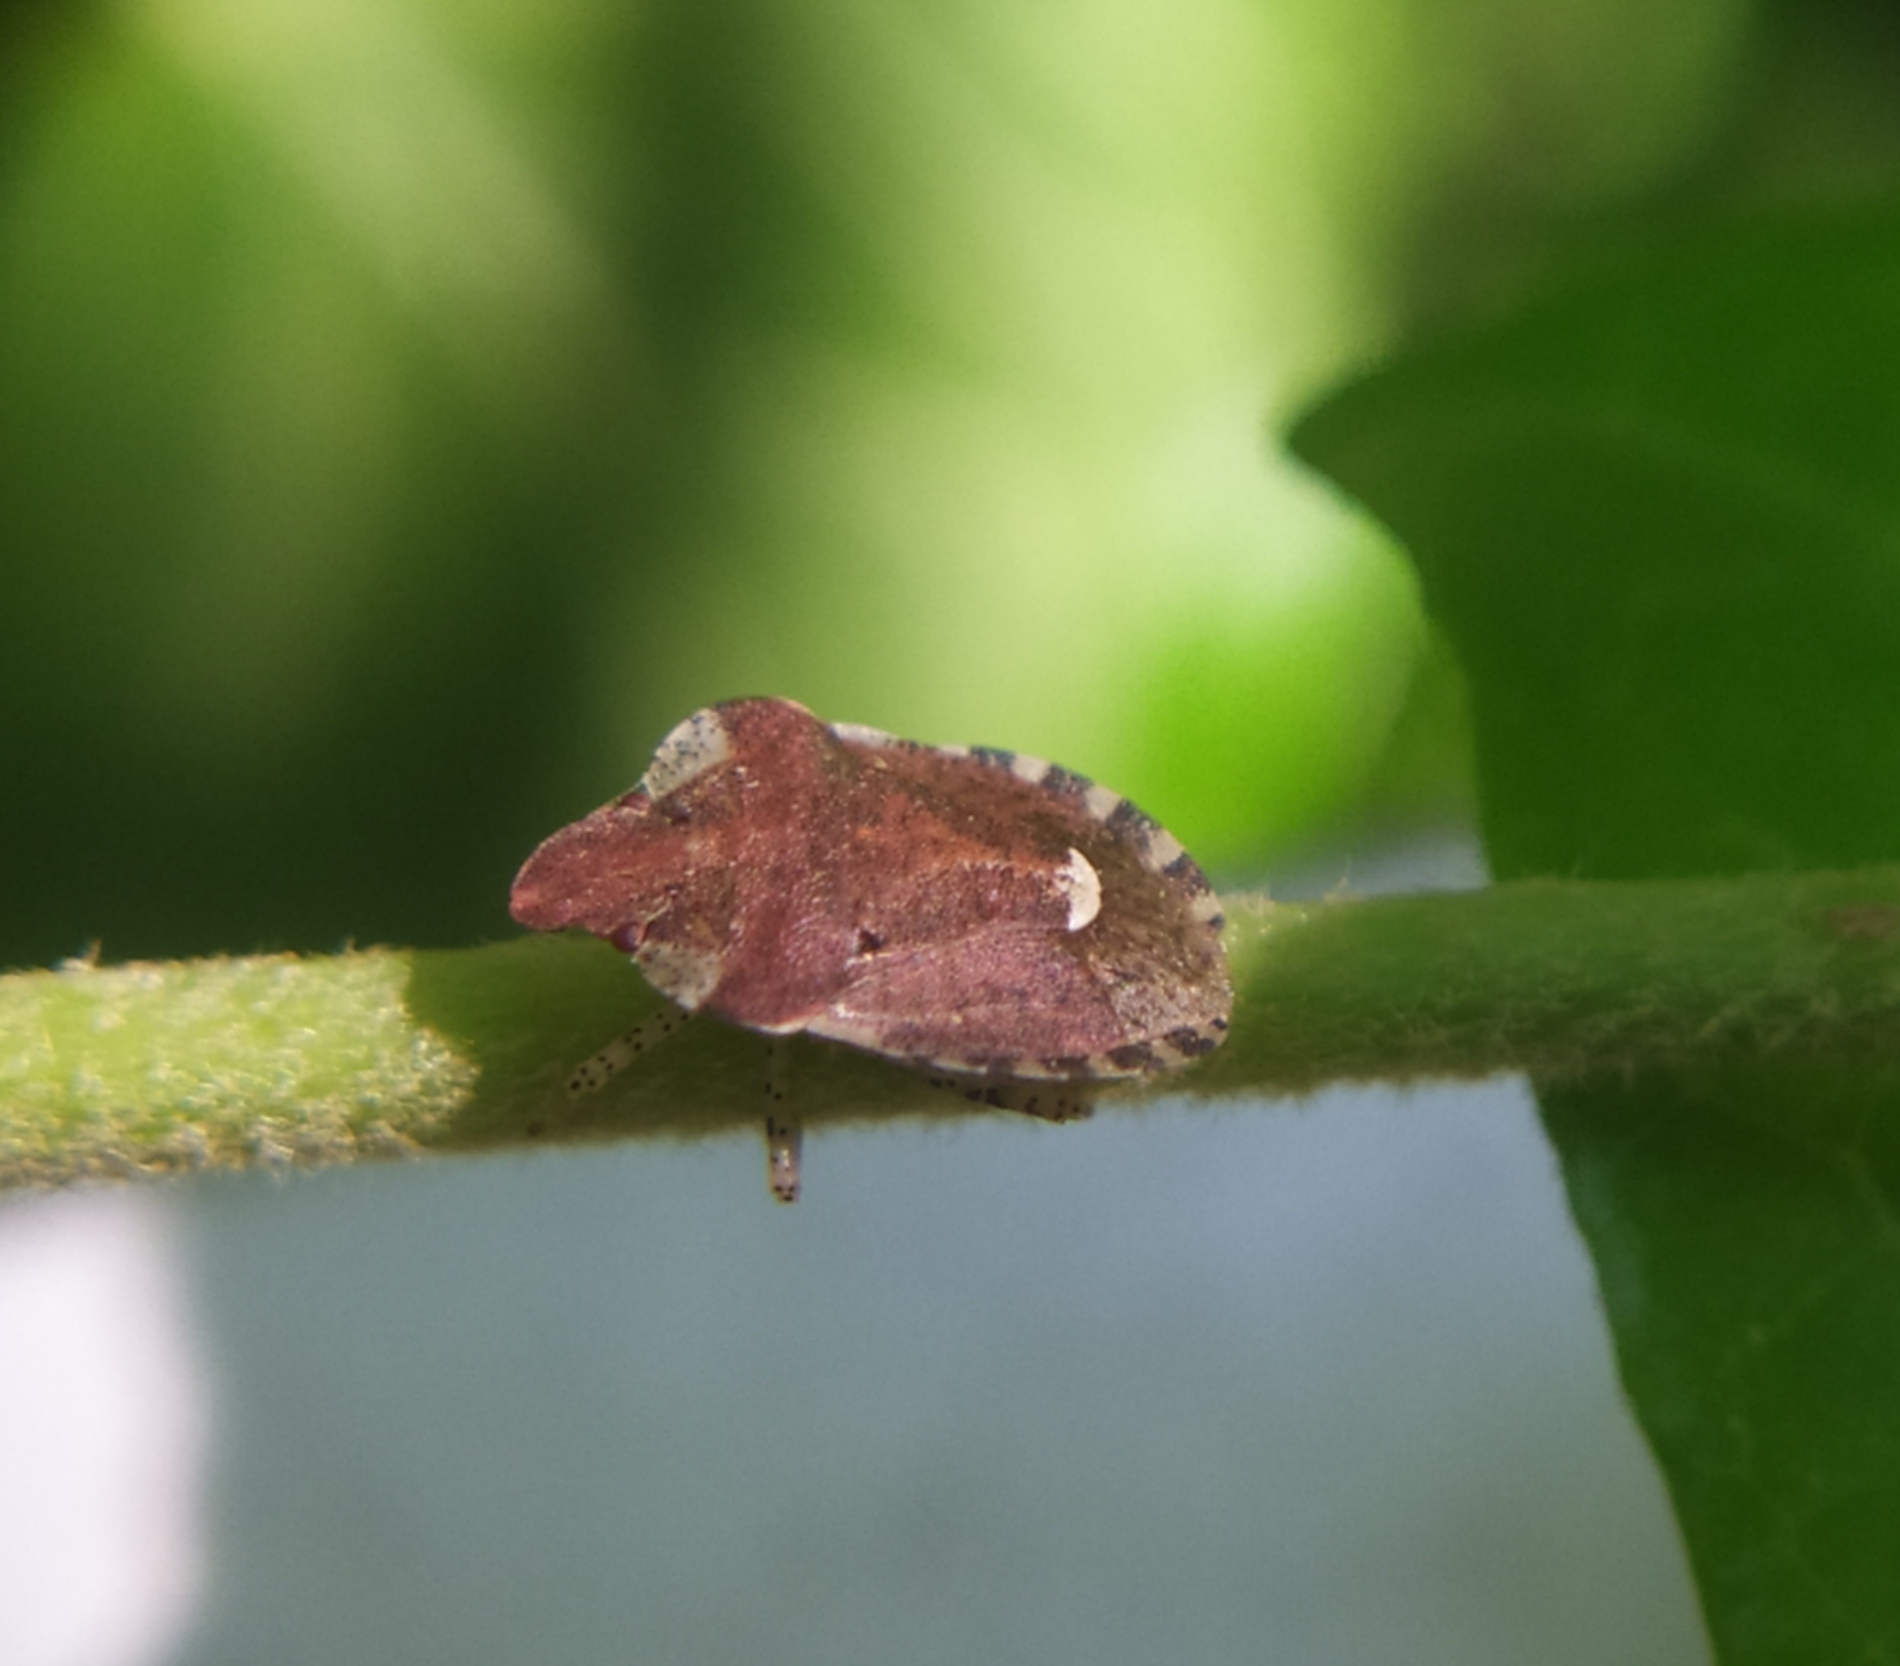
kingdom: Animalia
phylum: Arthropoda
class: Insecta
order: Hemiptera
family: Pentatomidae
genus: Dyroderes
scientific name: Dyroderes umbraculatus
